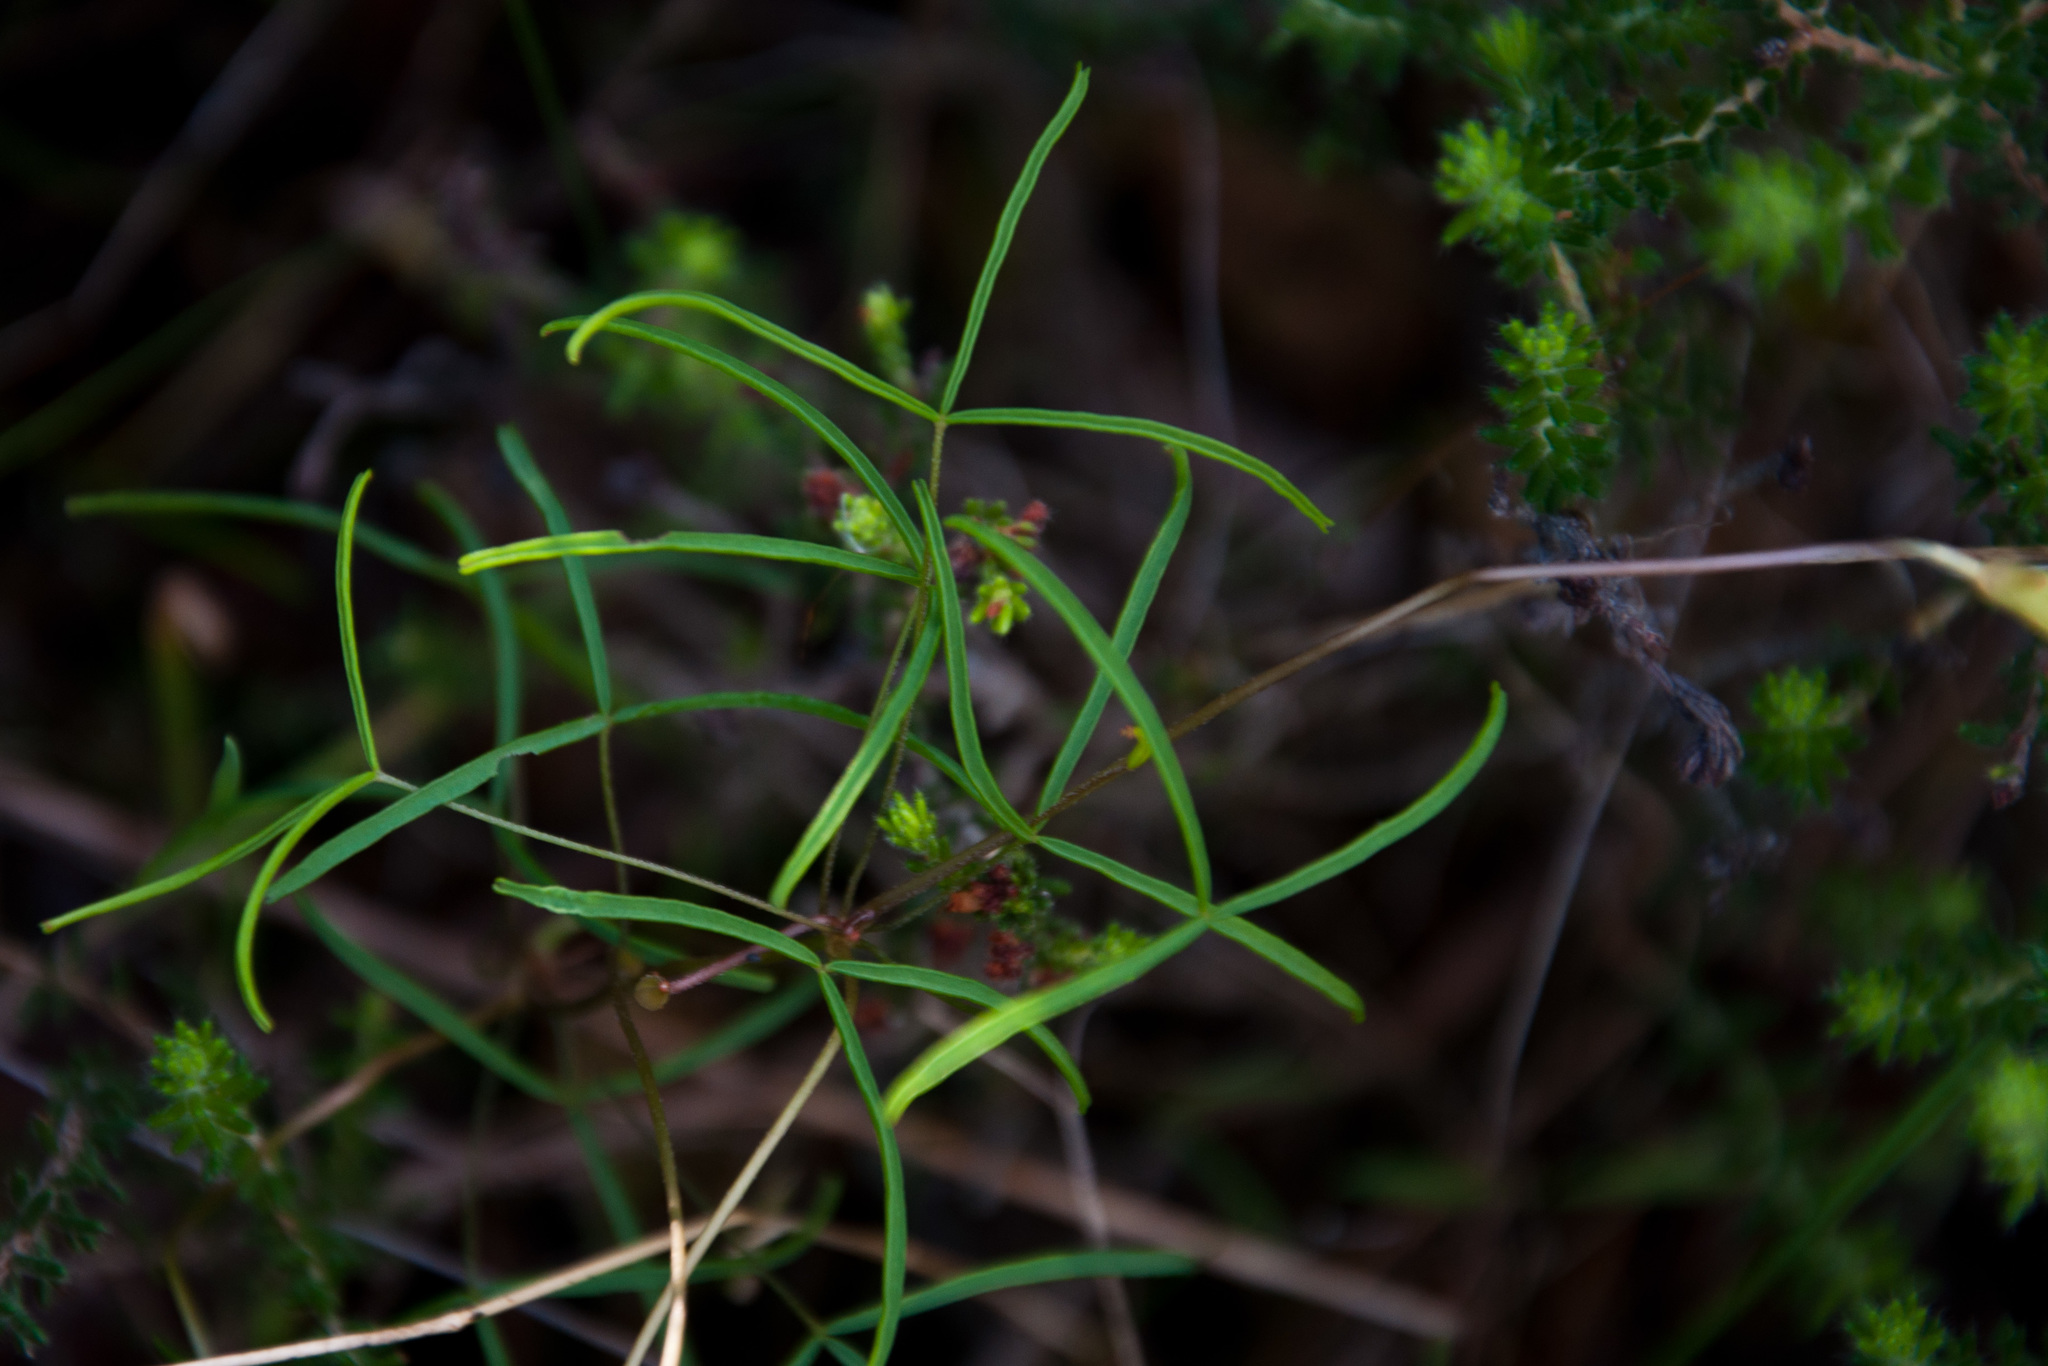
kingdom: Plantae
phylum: Tracheophyta
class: Magnoliopsida
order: Oxalidales
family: Oxalidaceae
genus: Oxalis
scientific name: Oxalis polyphylla
